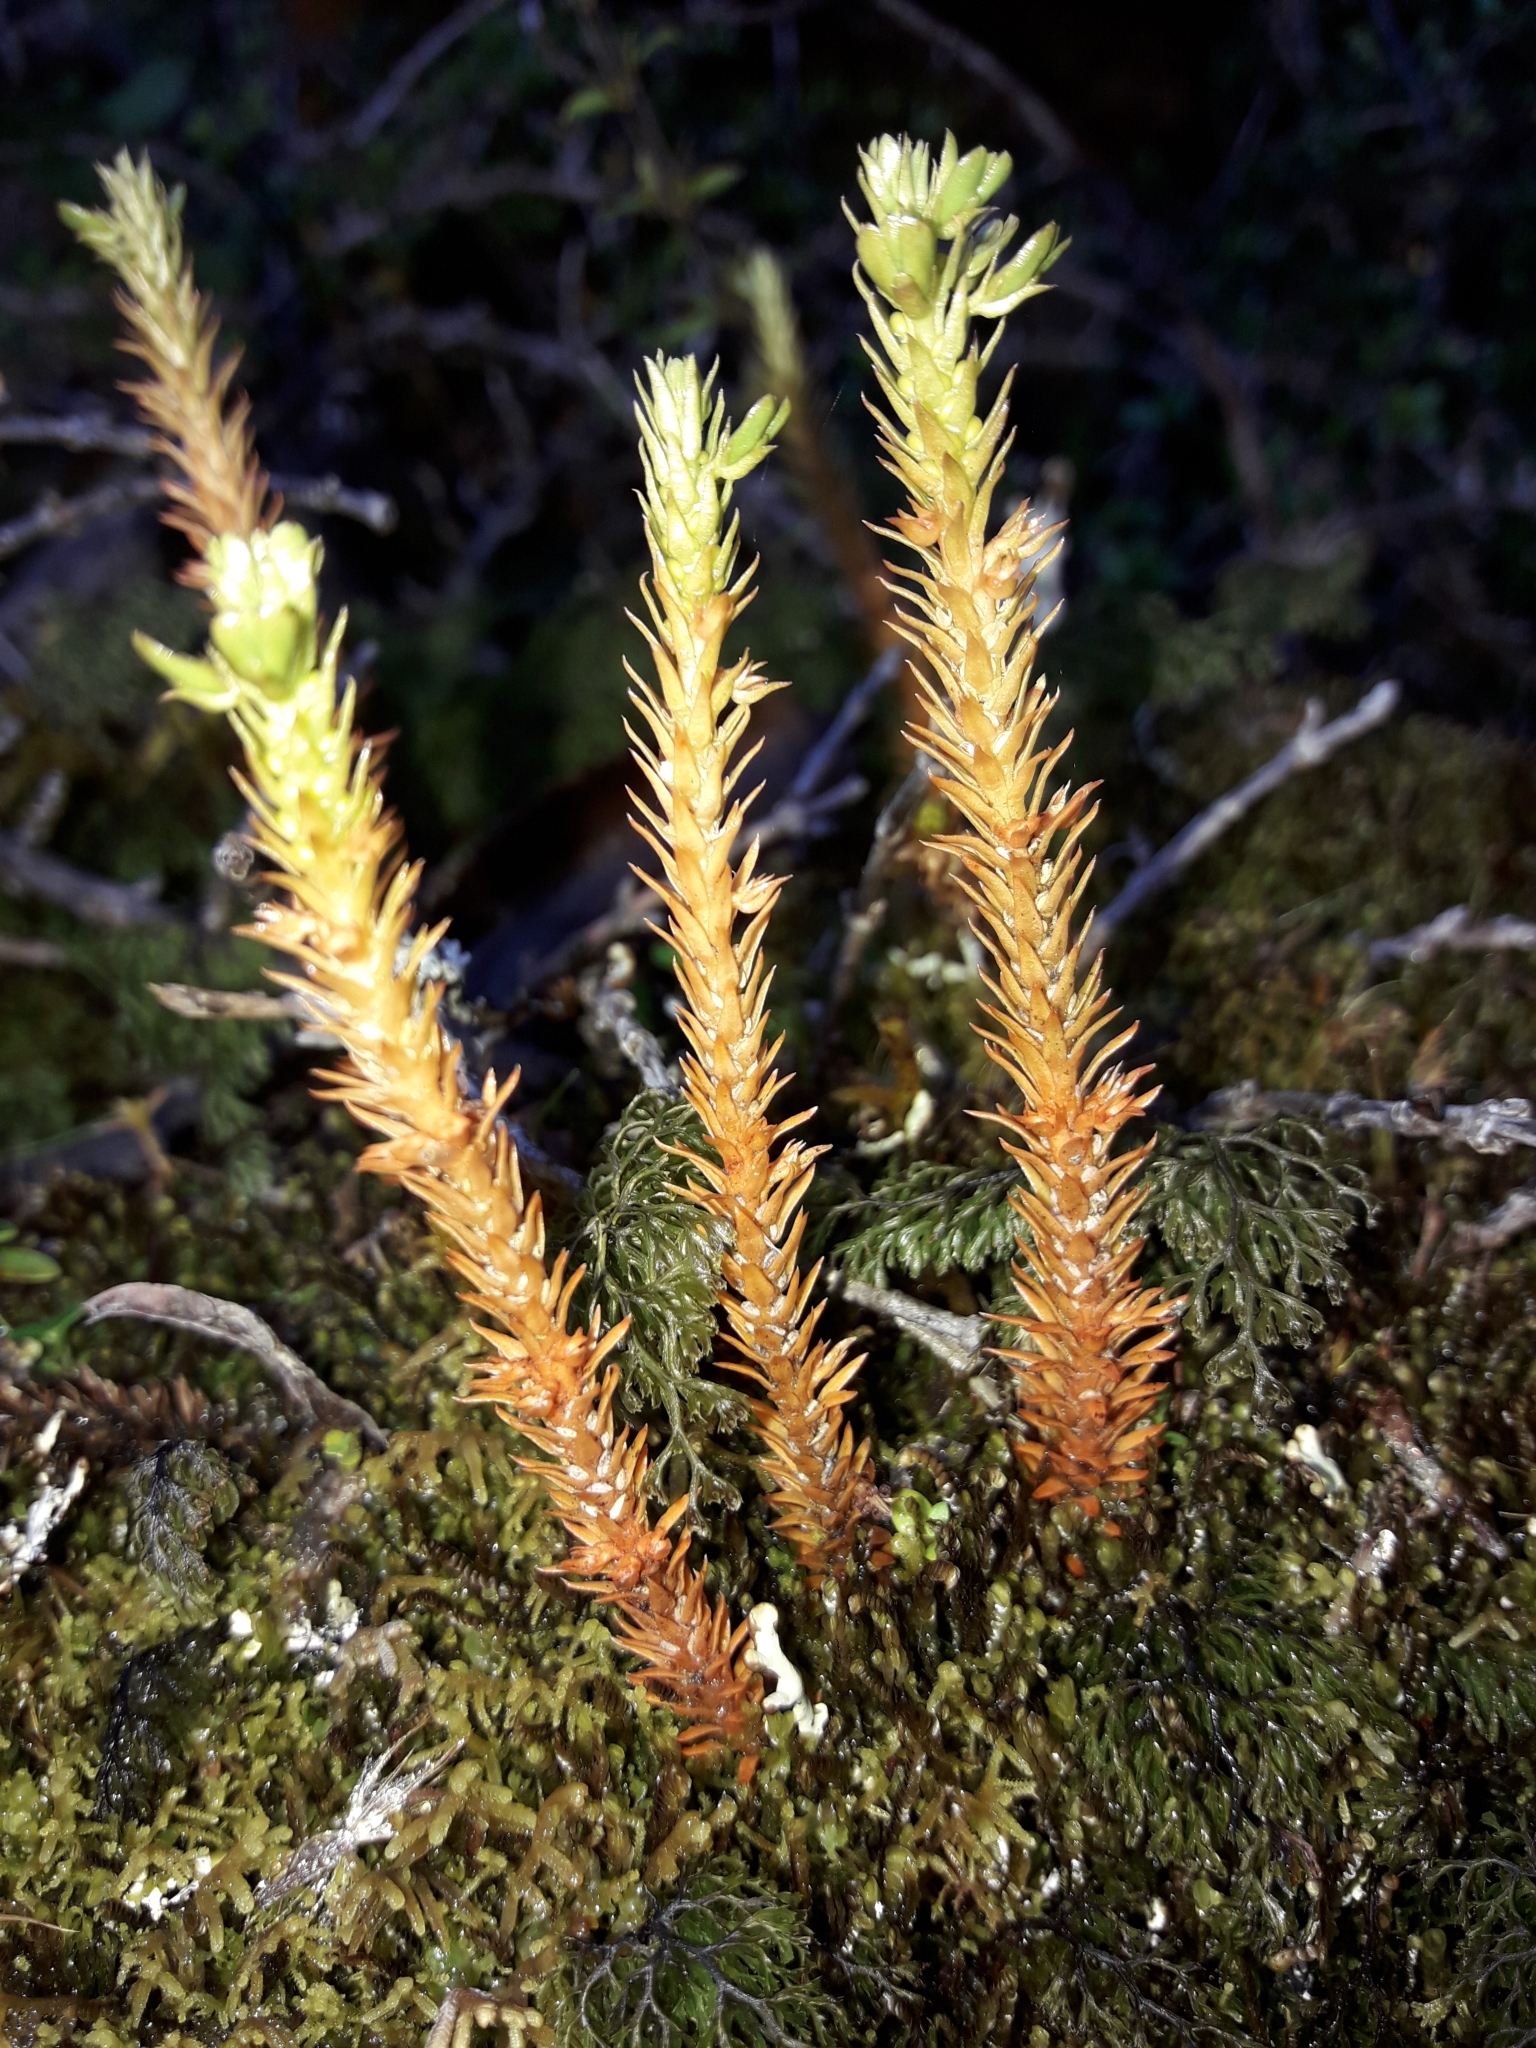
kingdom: Plantae
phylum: Tracheophyta
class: Lycopodiopsida
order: Lycopodiales
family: Lycopodiaceae
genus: Huperzia
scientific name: Huperzia australiana
